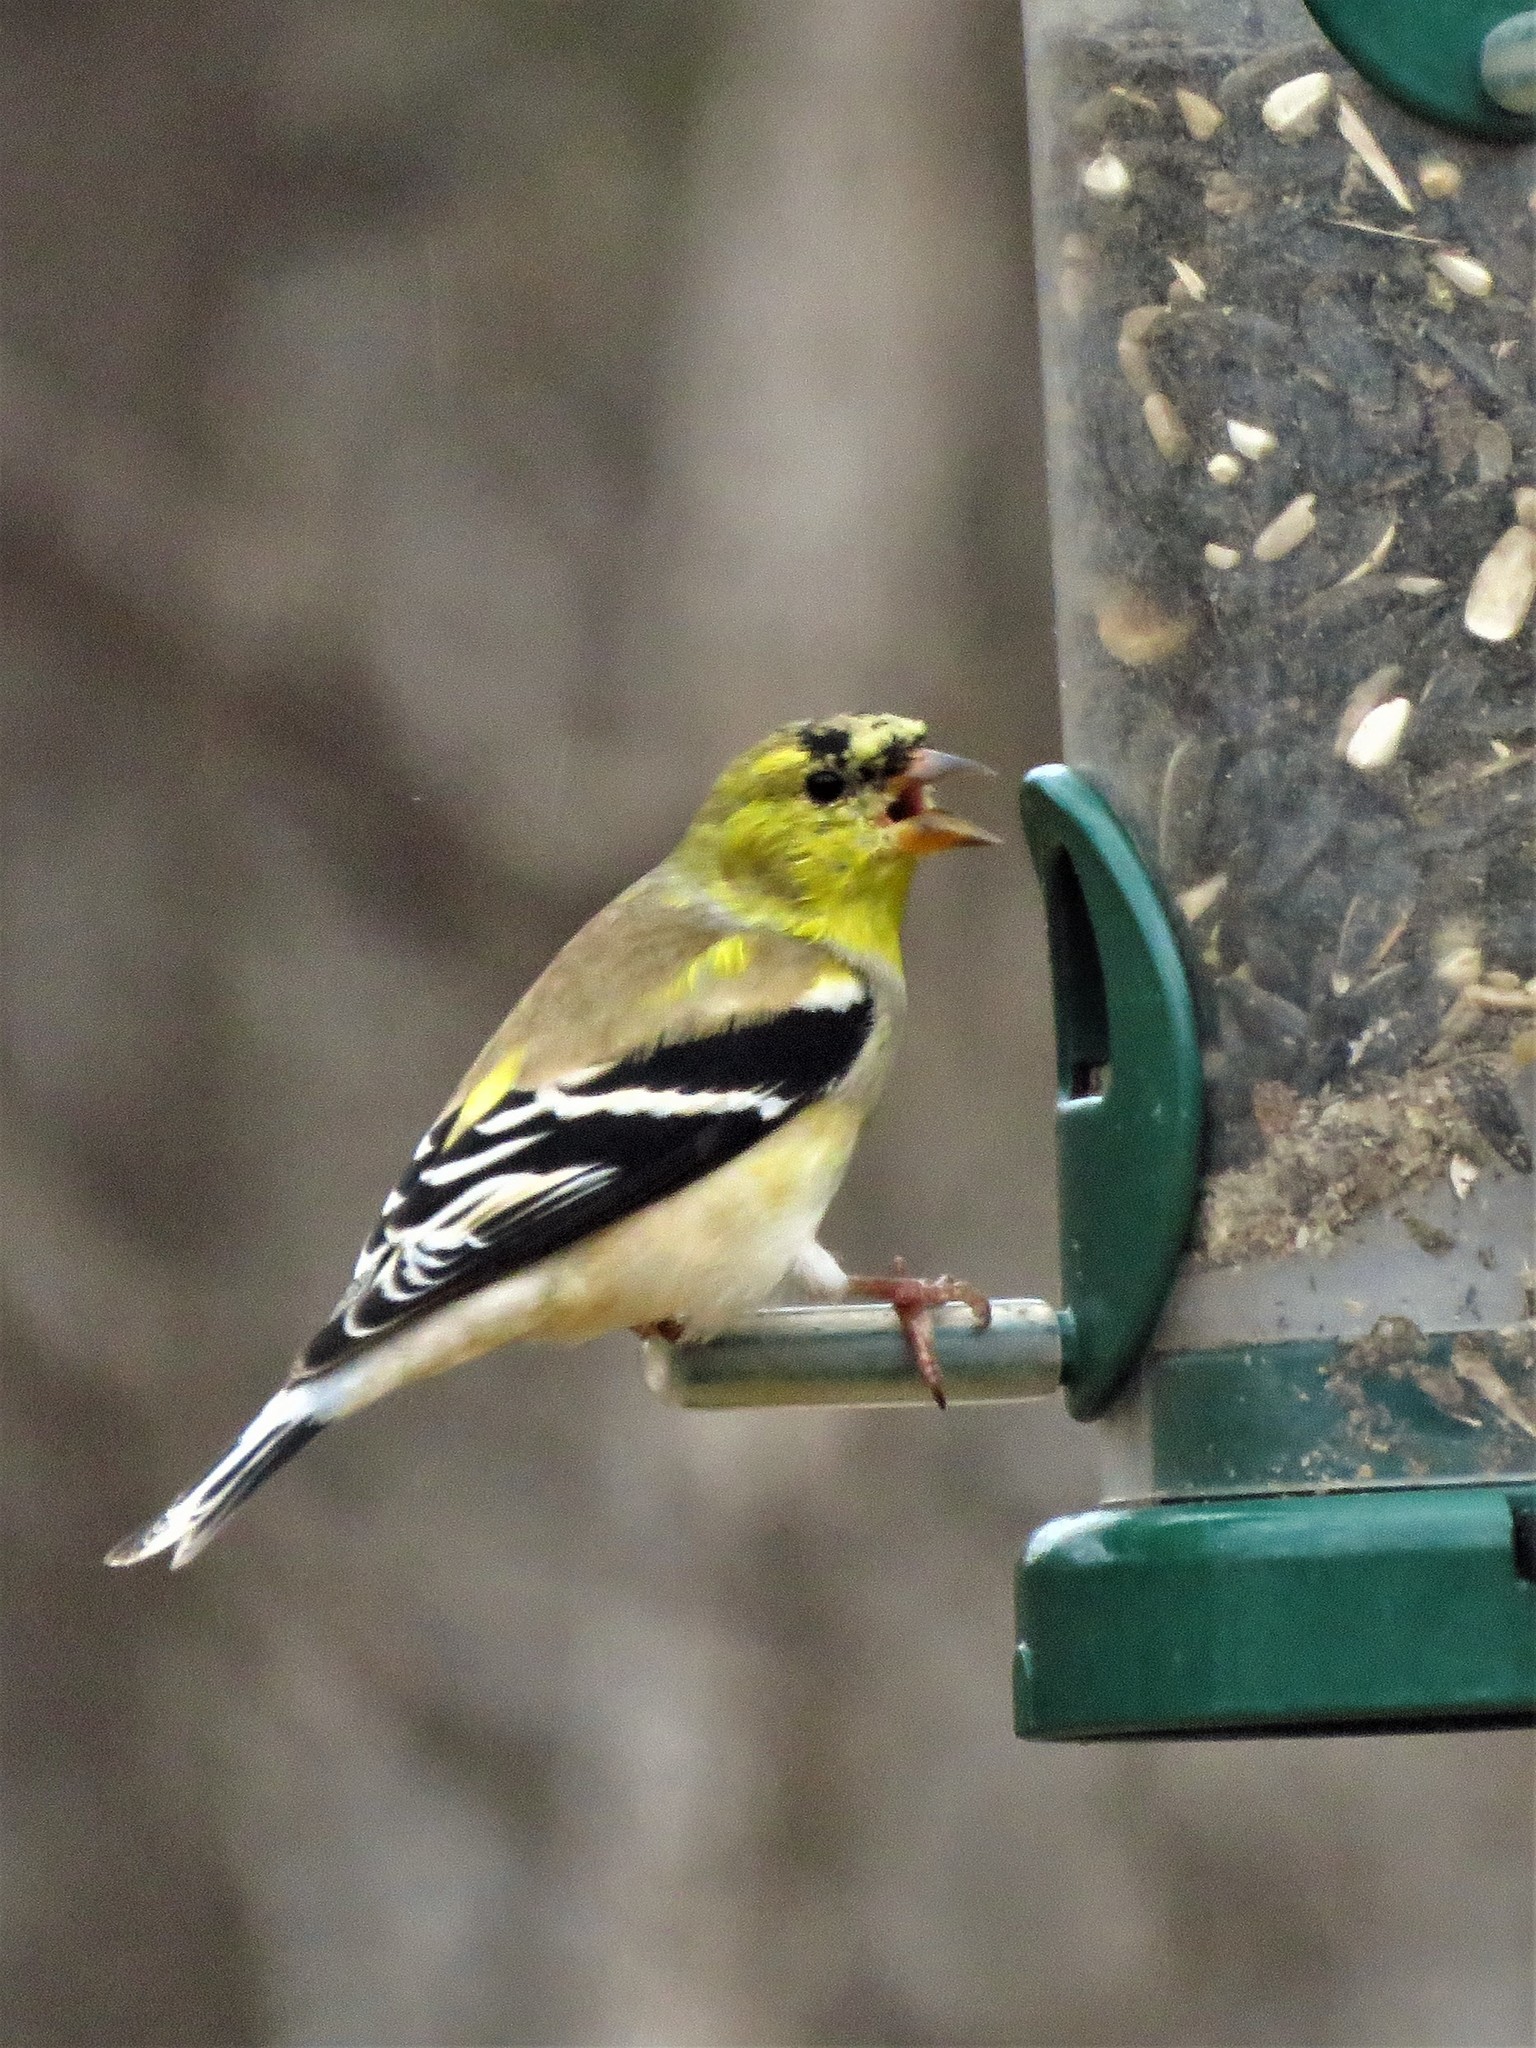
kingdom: Animalia
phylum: Chordata
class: Aves
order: Passeriformes
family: Fringillidae
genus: Spinus
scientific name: Spinus tristis
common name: American goldfinch
